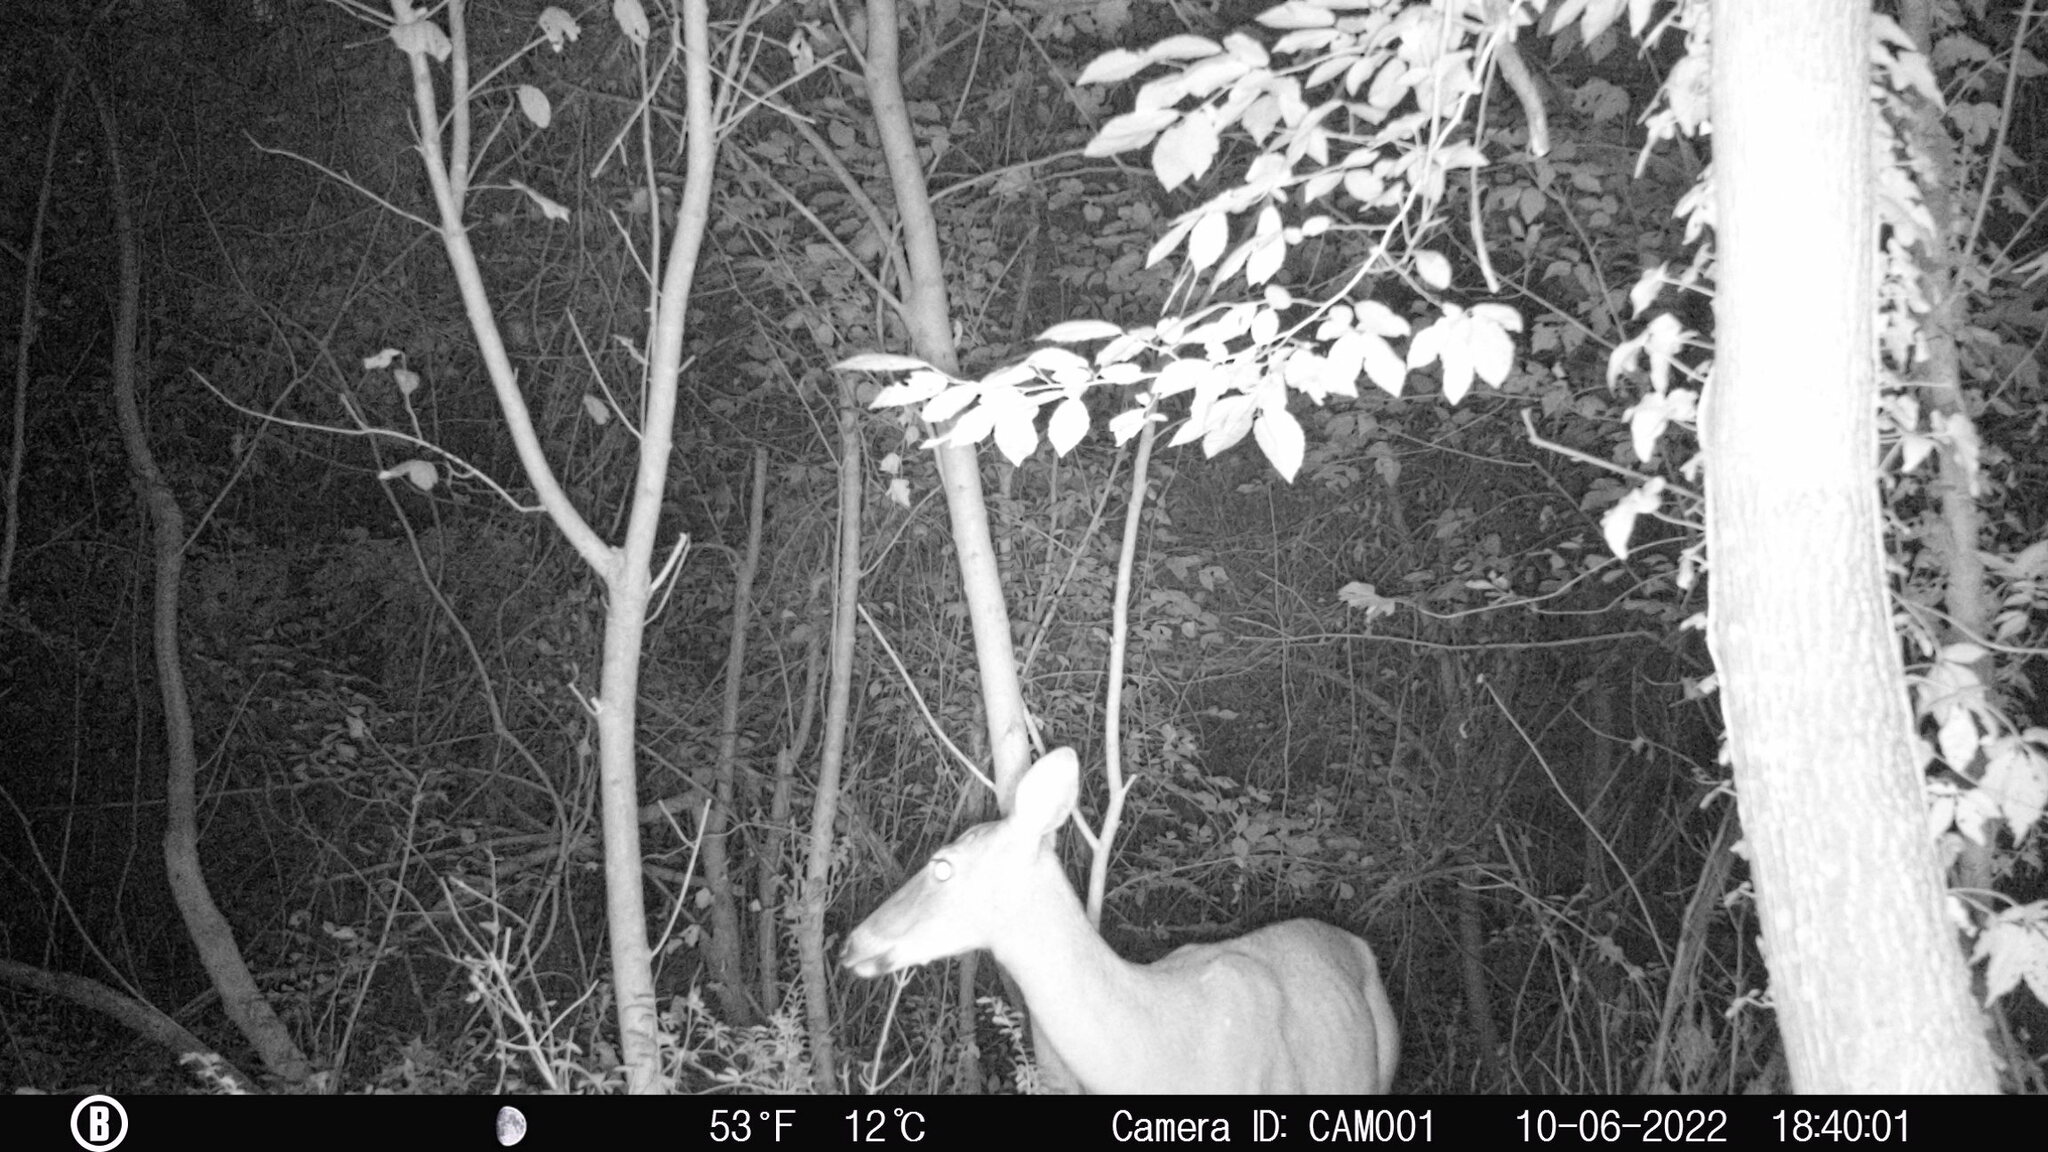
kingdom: Animalia
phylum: Chordata
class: Mammalia
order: Artiodactyla
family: Cervidae
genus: Odocoileus
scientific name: Odocoileus virginianus
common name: White-tailed deer
